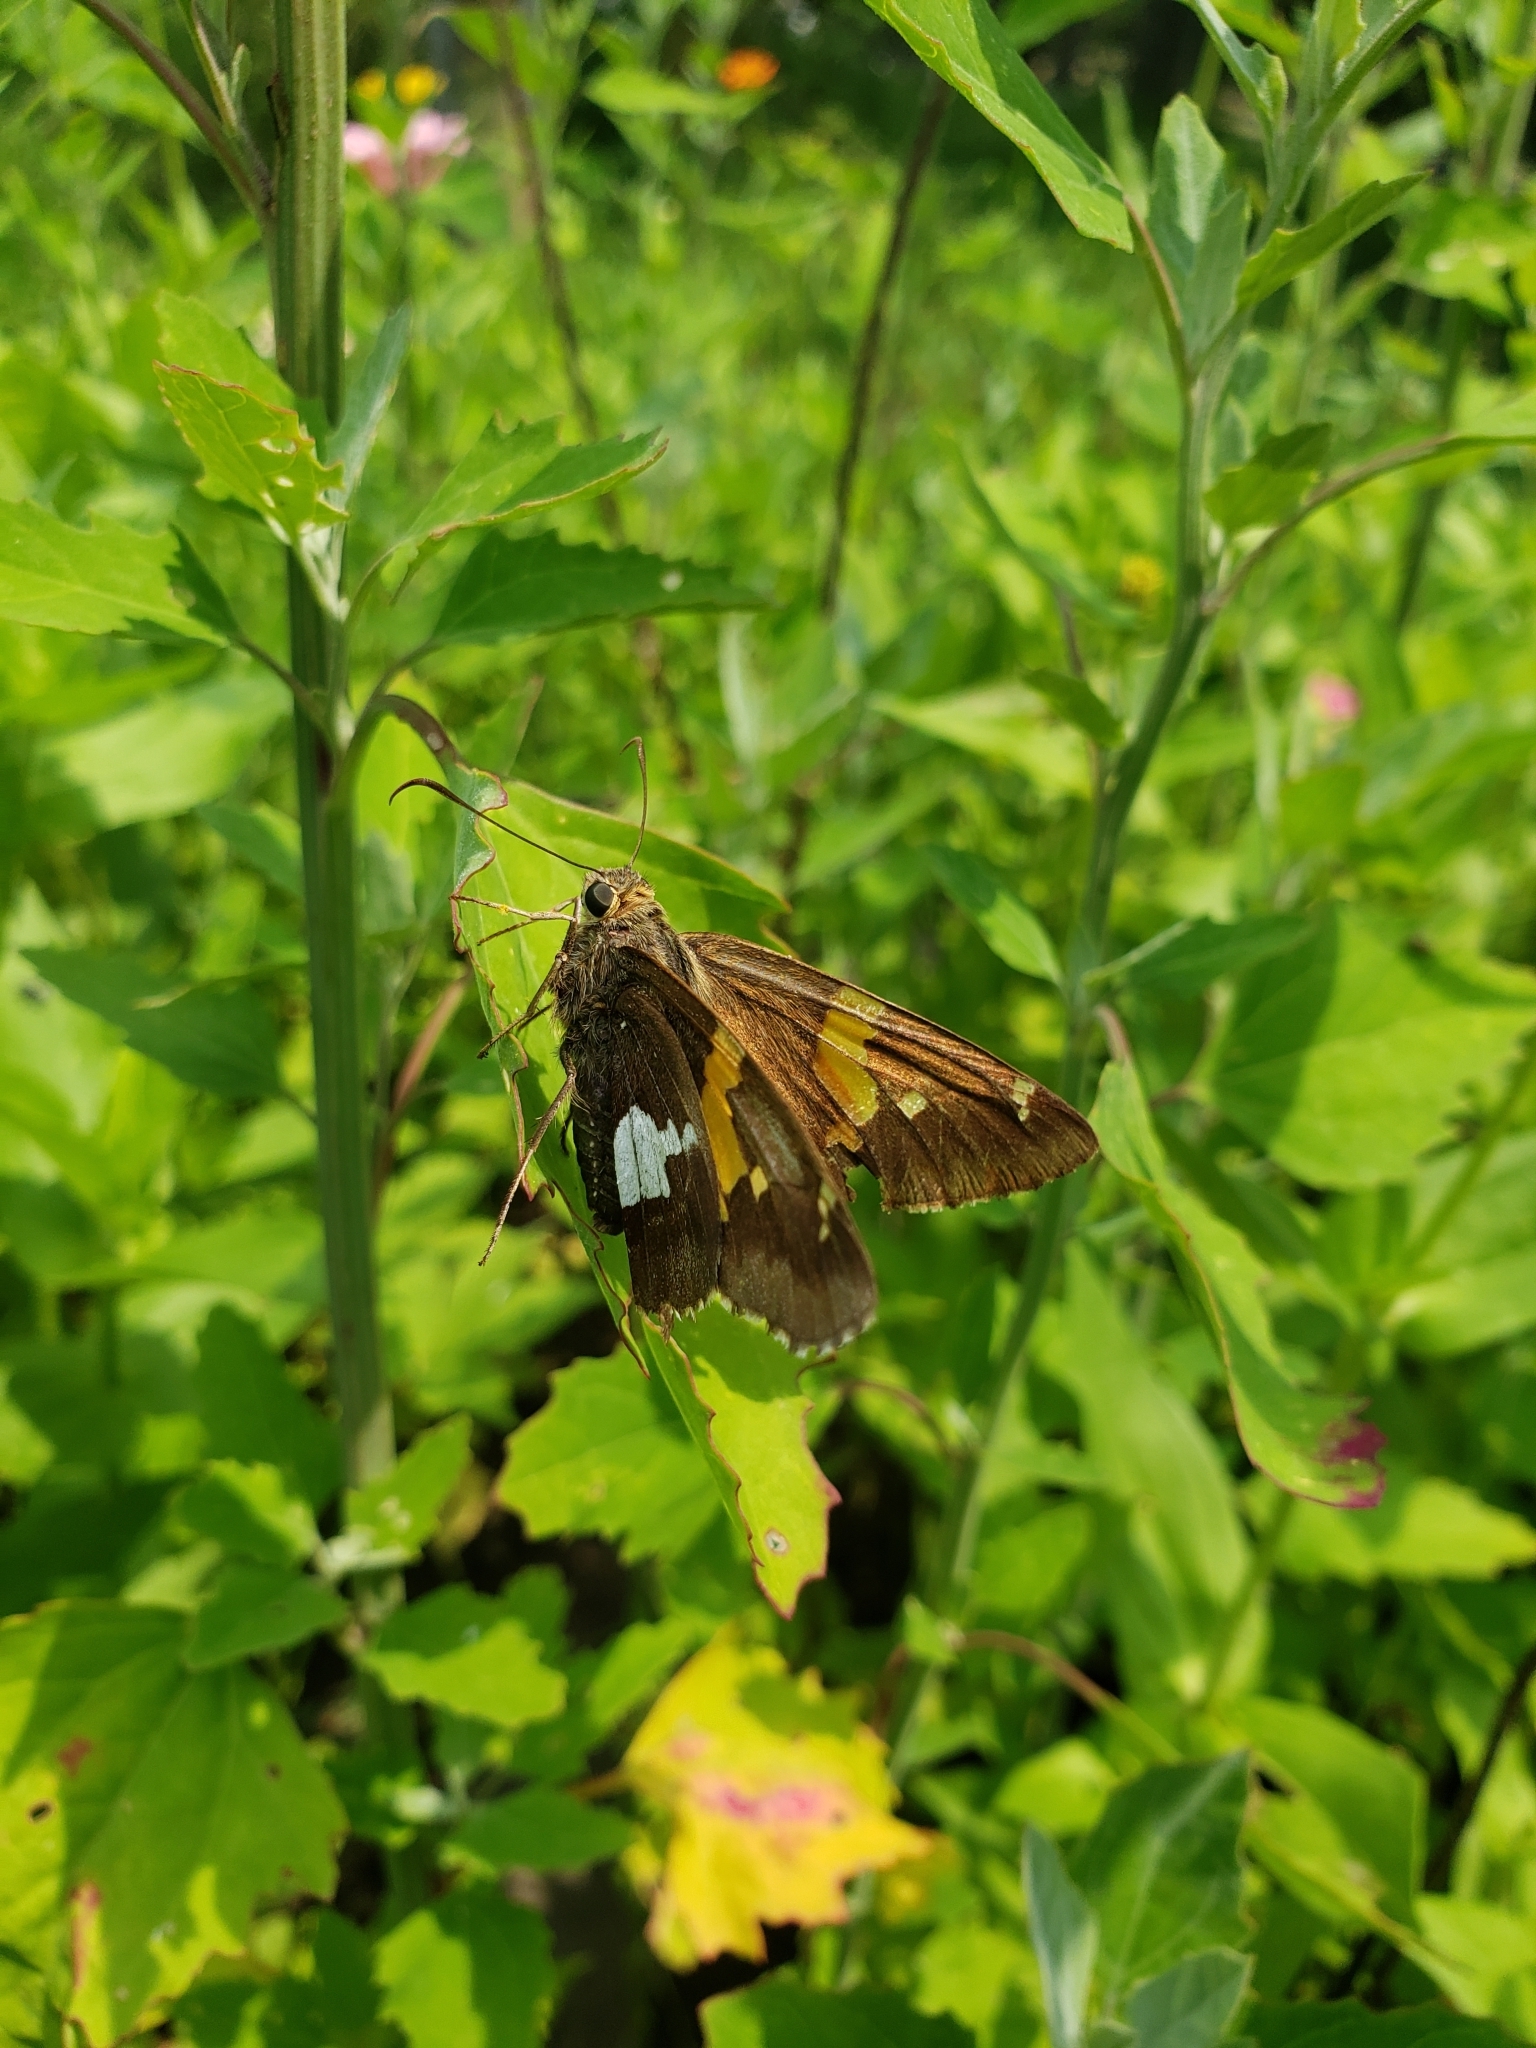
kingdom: Animalia
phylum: Arthropoda
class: Insecta
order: Lepidoptera
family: Hesperiidae
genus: Epargyreus
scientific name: Epargyreus clarus
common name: Silver-spotted skipper
